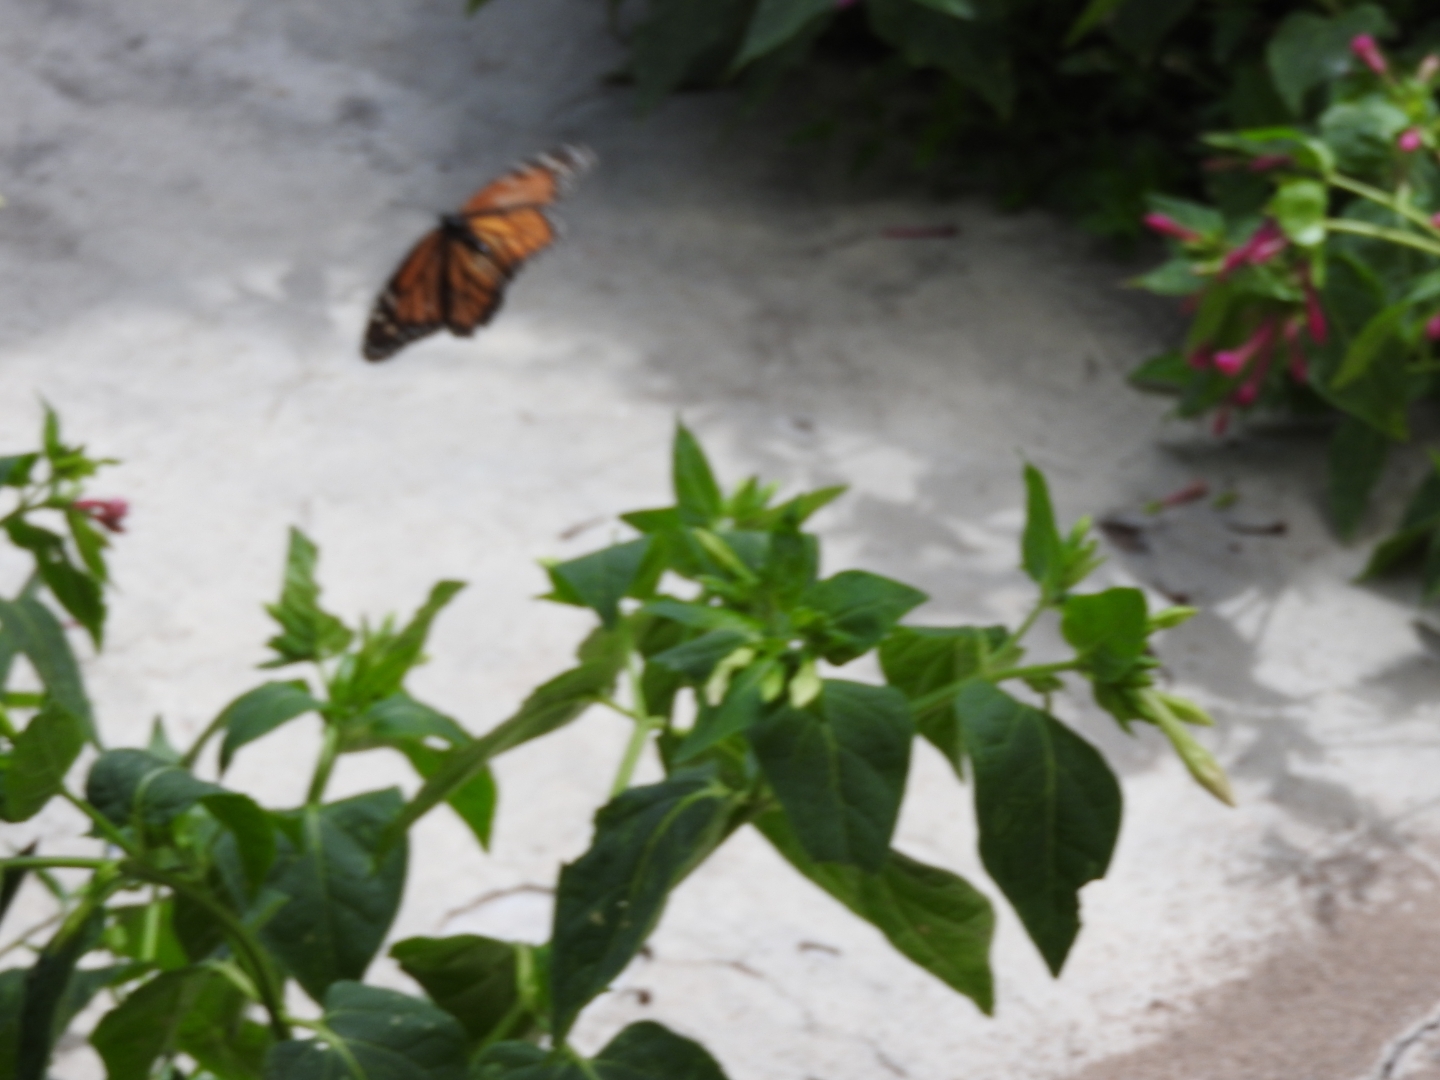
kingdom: Animalia
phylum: Arthropoda
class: Insecta
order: Lepidoptera
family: Nymphalidae
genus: Danaus
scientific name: Danaus plexippus
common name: Monarch
